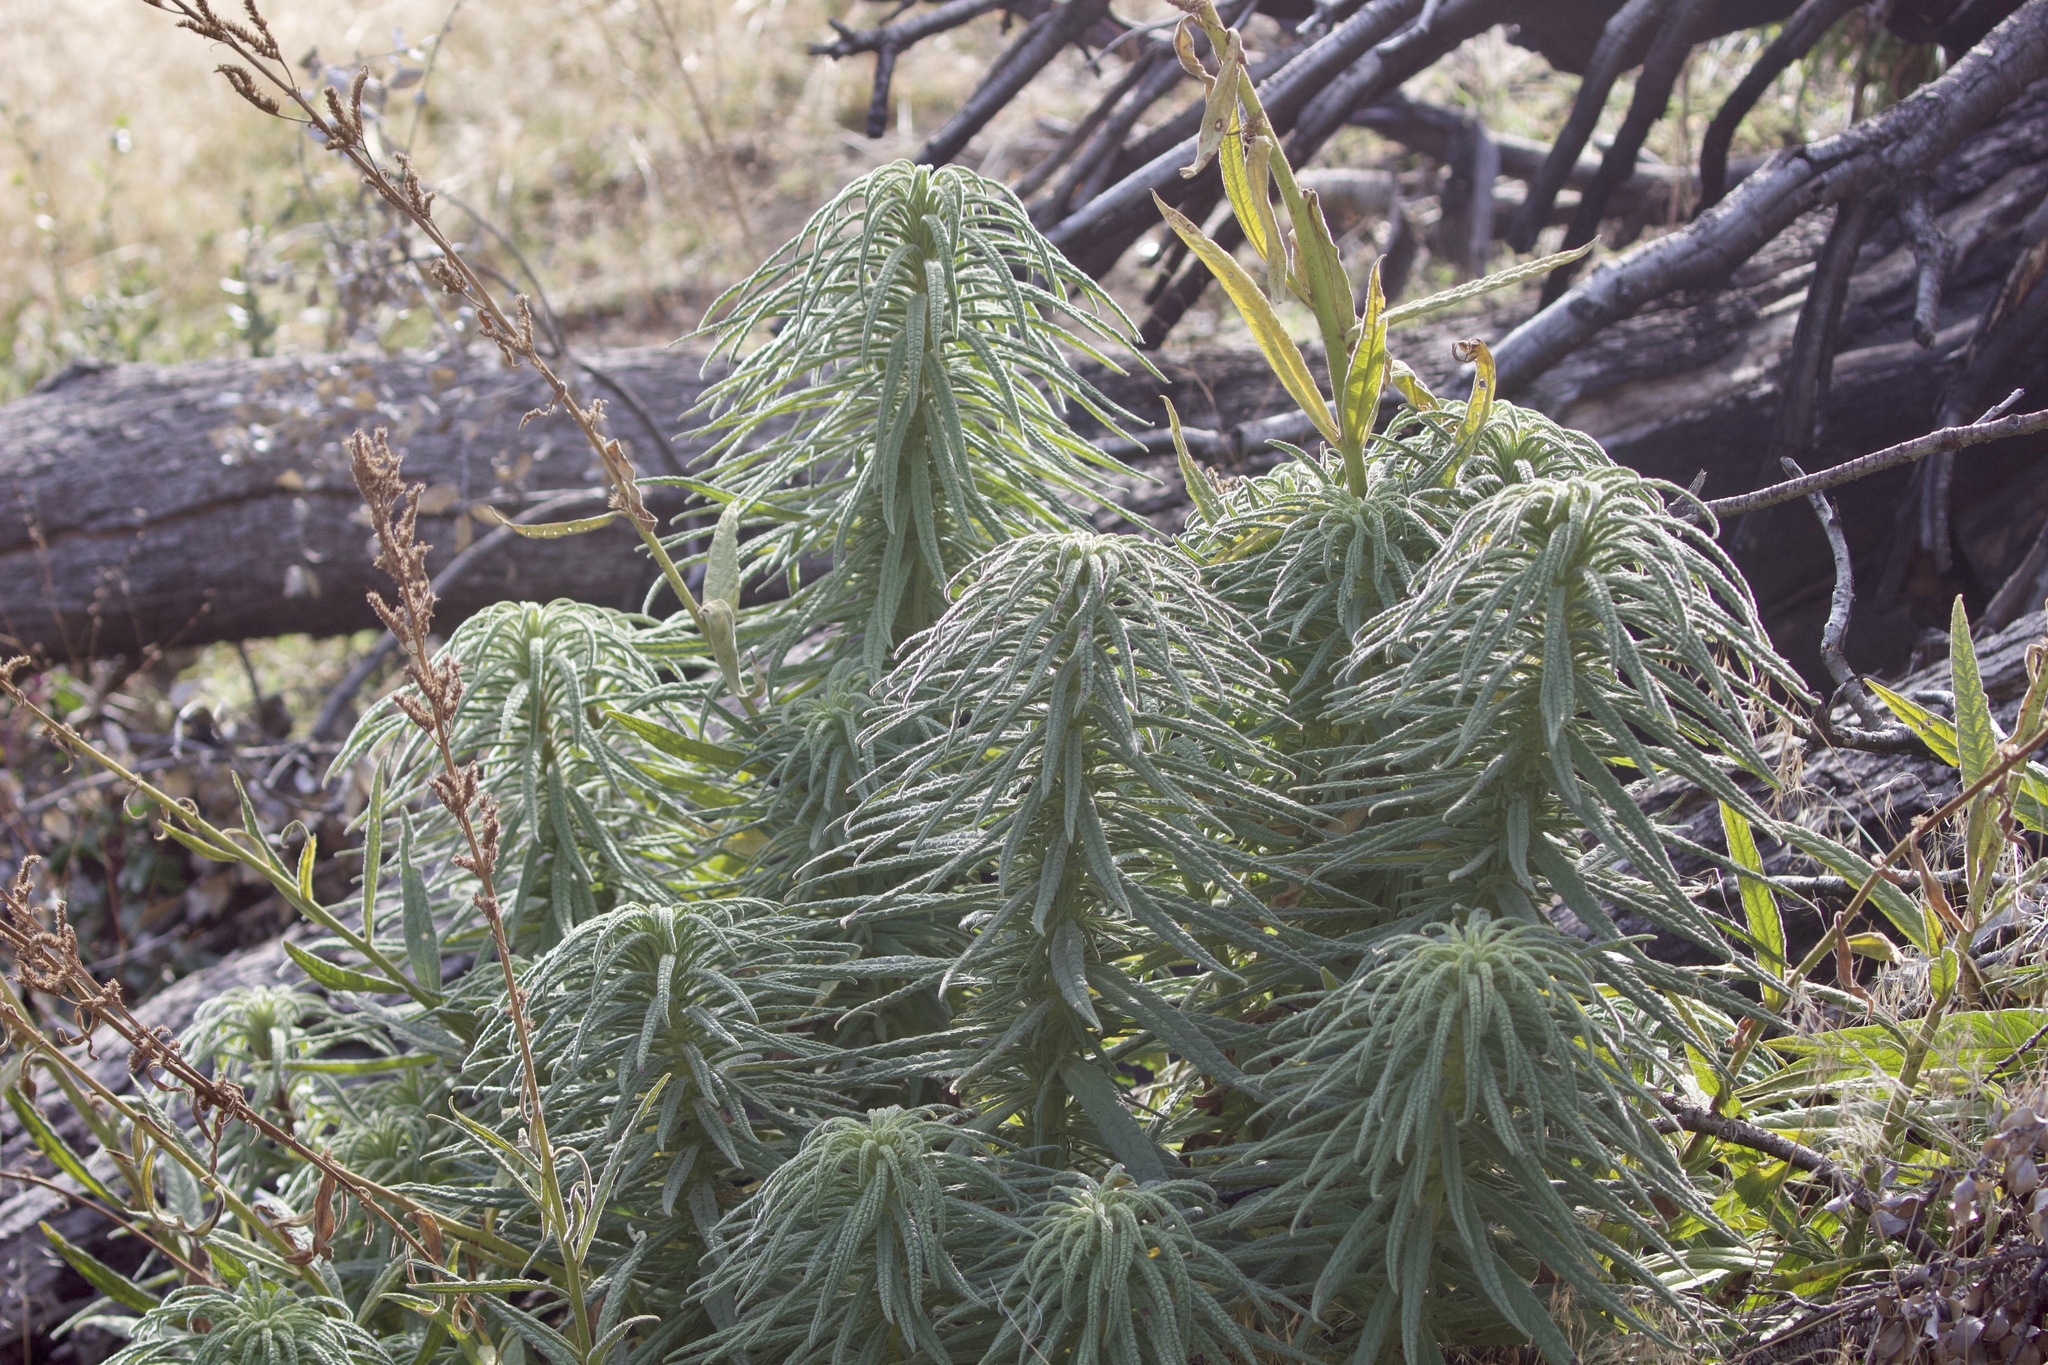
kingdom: Plantae
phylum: Tracheophyta
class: Magnoliopsida
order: Boraginales
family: Namaceae
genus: Turricula
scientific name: Turricula parryi
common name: Poodle-dog-bush
